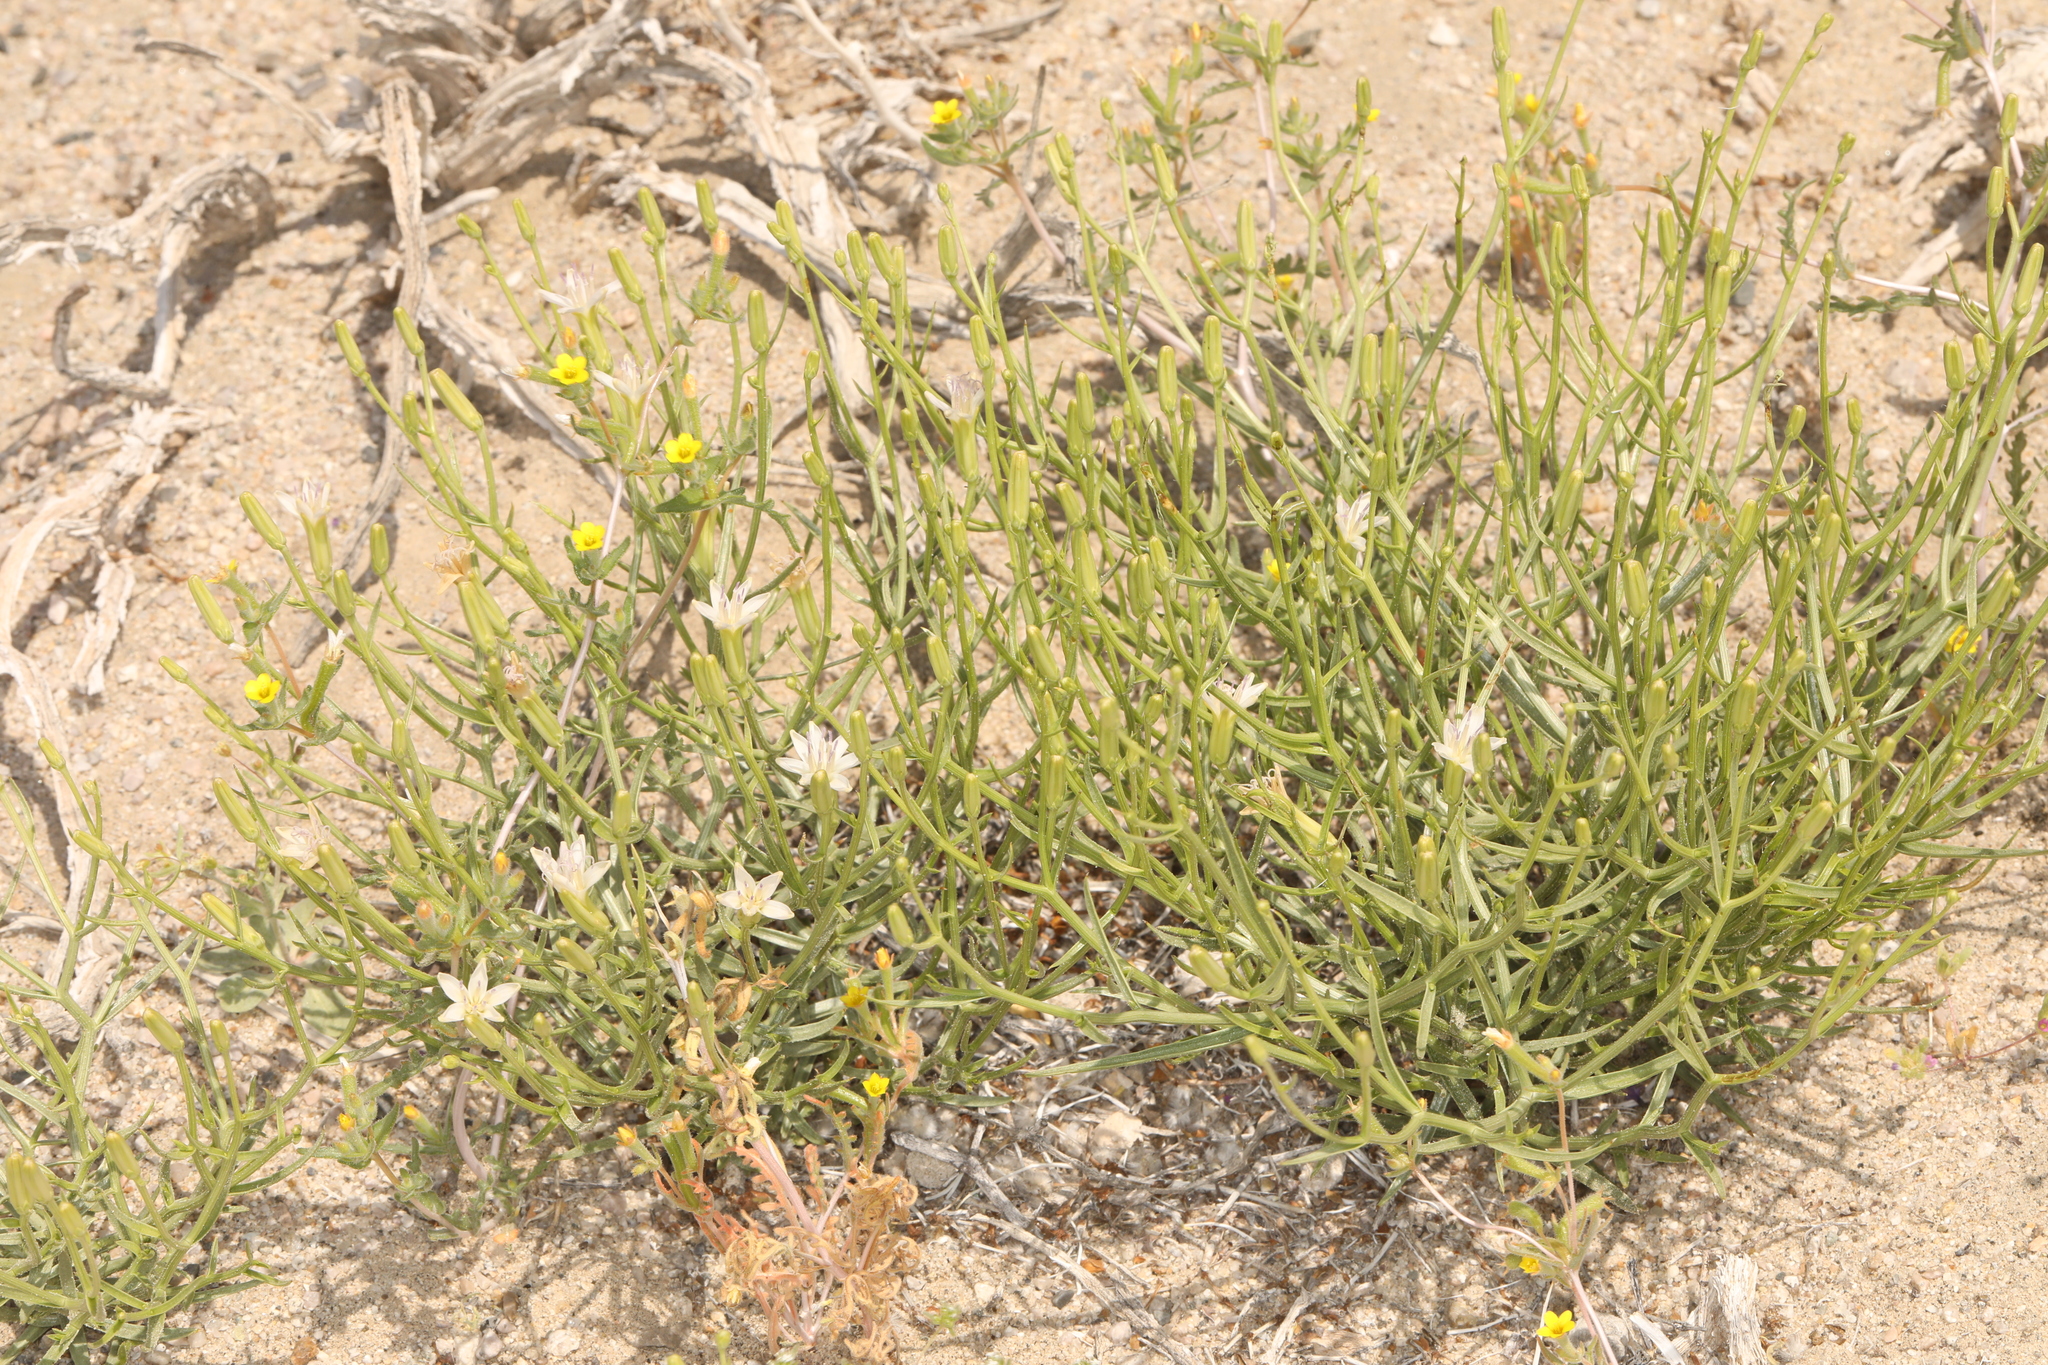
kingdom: Plantae
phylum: Tracheophyta
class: Magnoliopsida
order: Asterales
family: Asteraceae
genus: Chaetadelpha
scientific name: Chaetadelpha wheeleri
